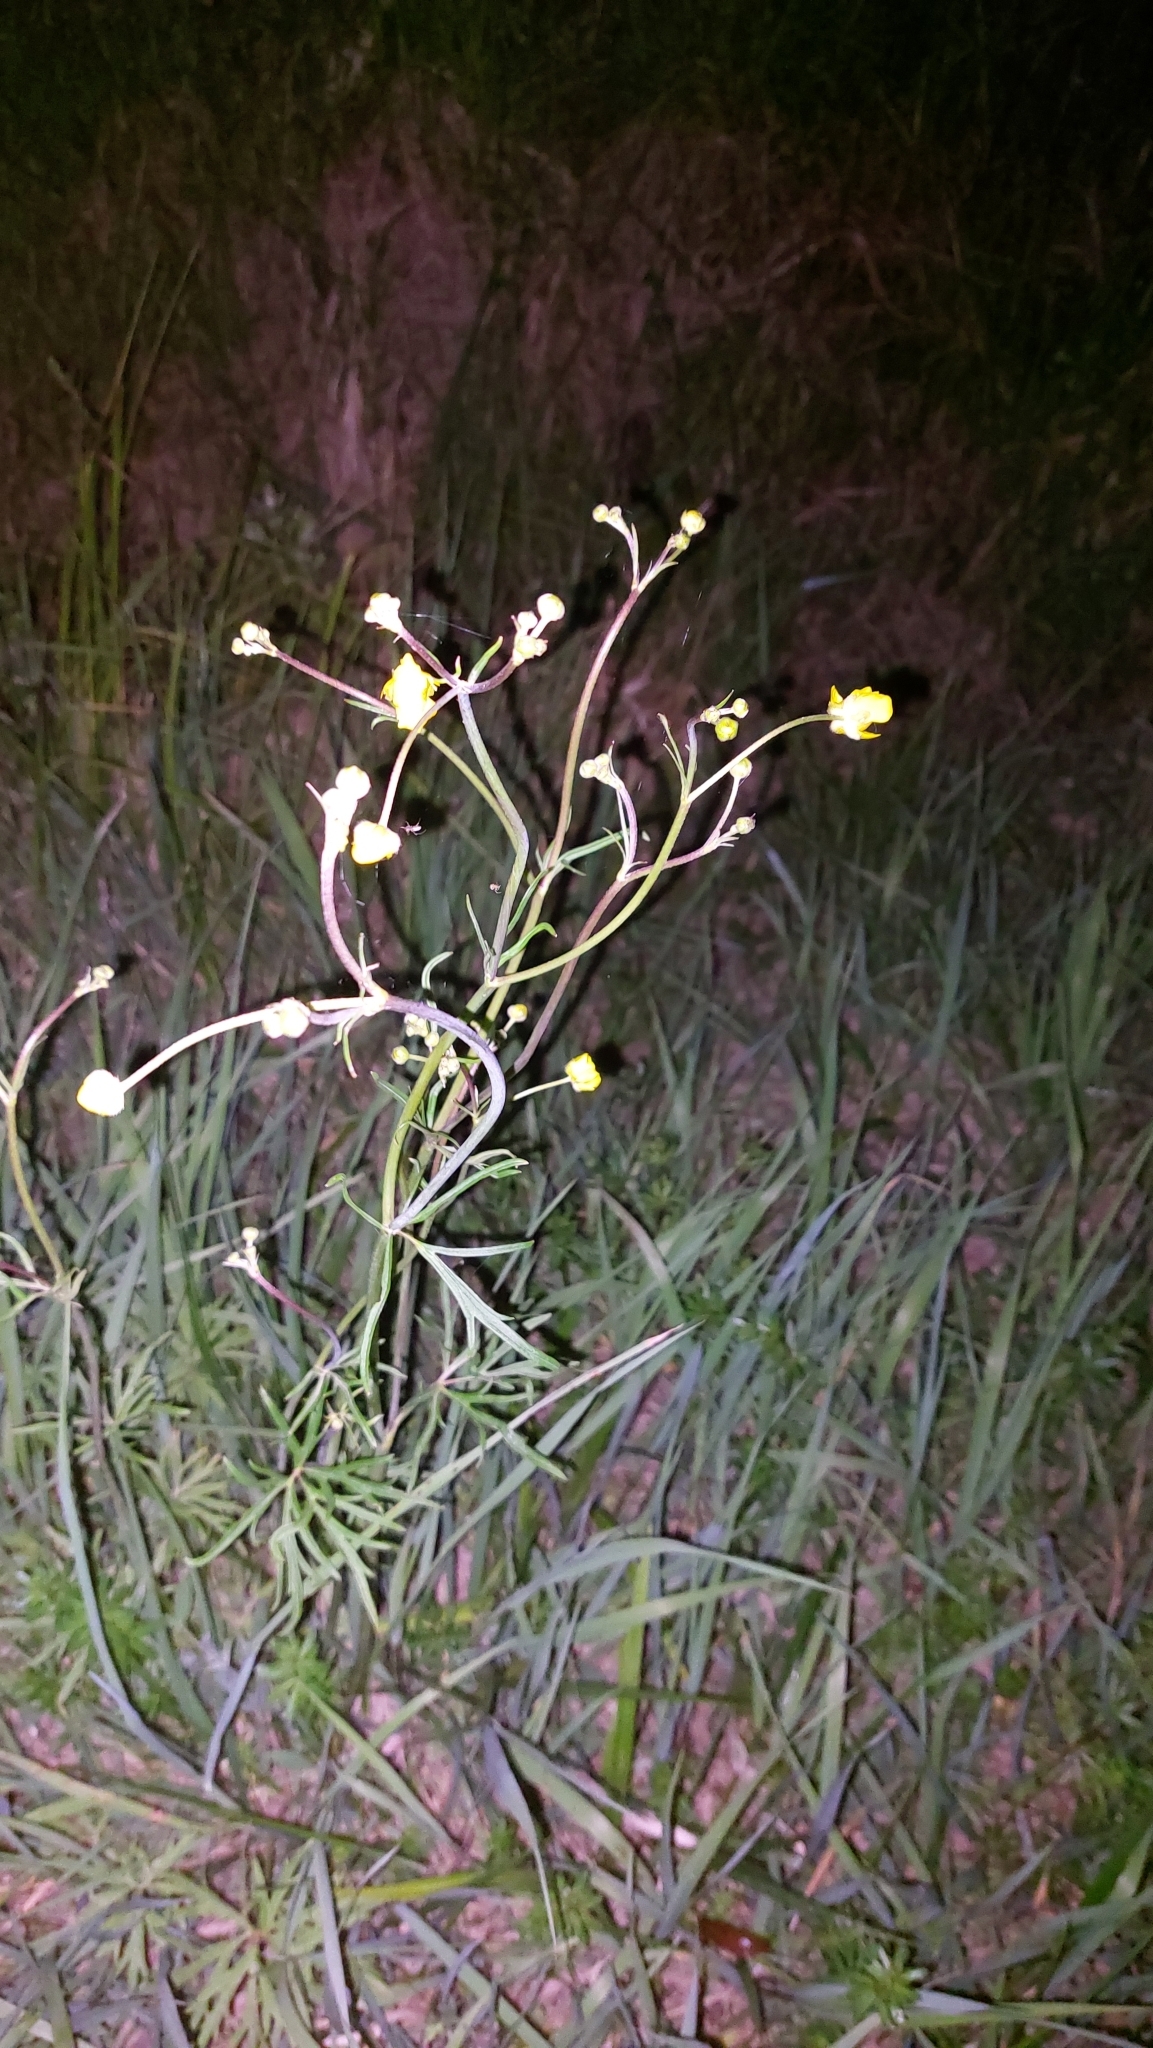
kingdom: Plantae
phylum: Tracheophyta
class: Magnoliopsida
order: Ranunculales
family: Ranunculaceae
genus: Ranunculus
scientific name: Ranunculus acris
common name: Meadow buttercup
